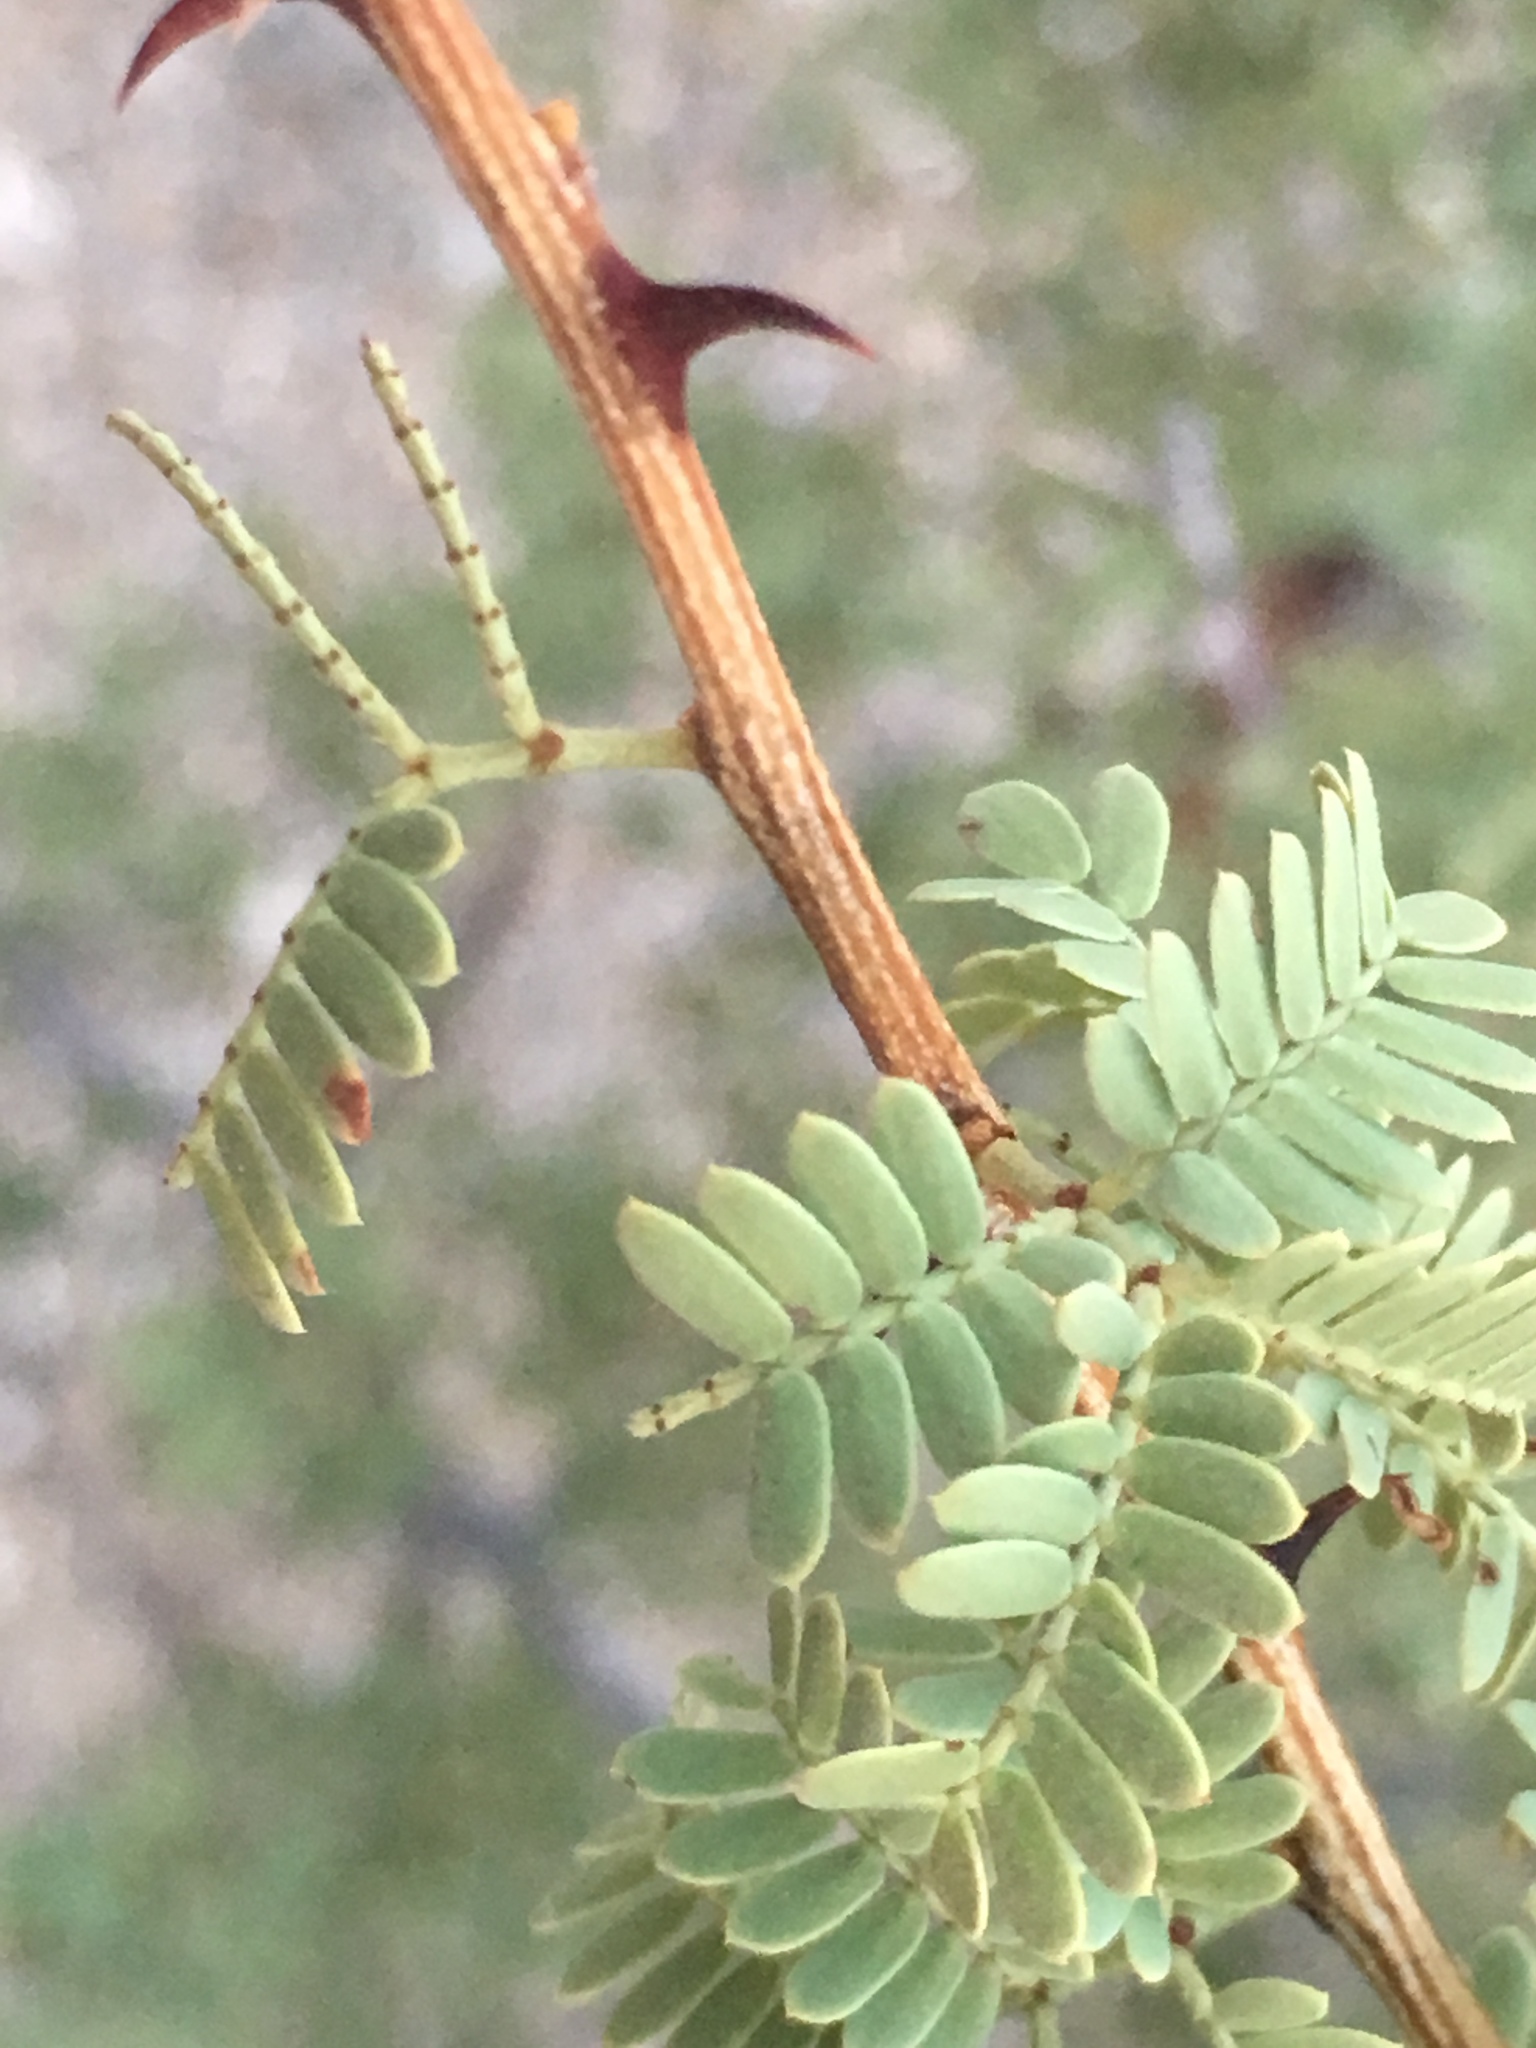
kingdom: Plantae
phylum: Tracheophyta
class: Magnoliopsida
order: Fabales
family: Fabaceae
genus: Senegalia
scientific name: Senegalia greggii
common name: Texas-mimosa
